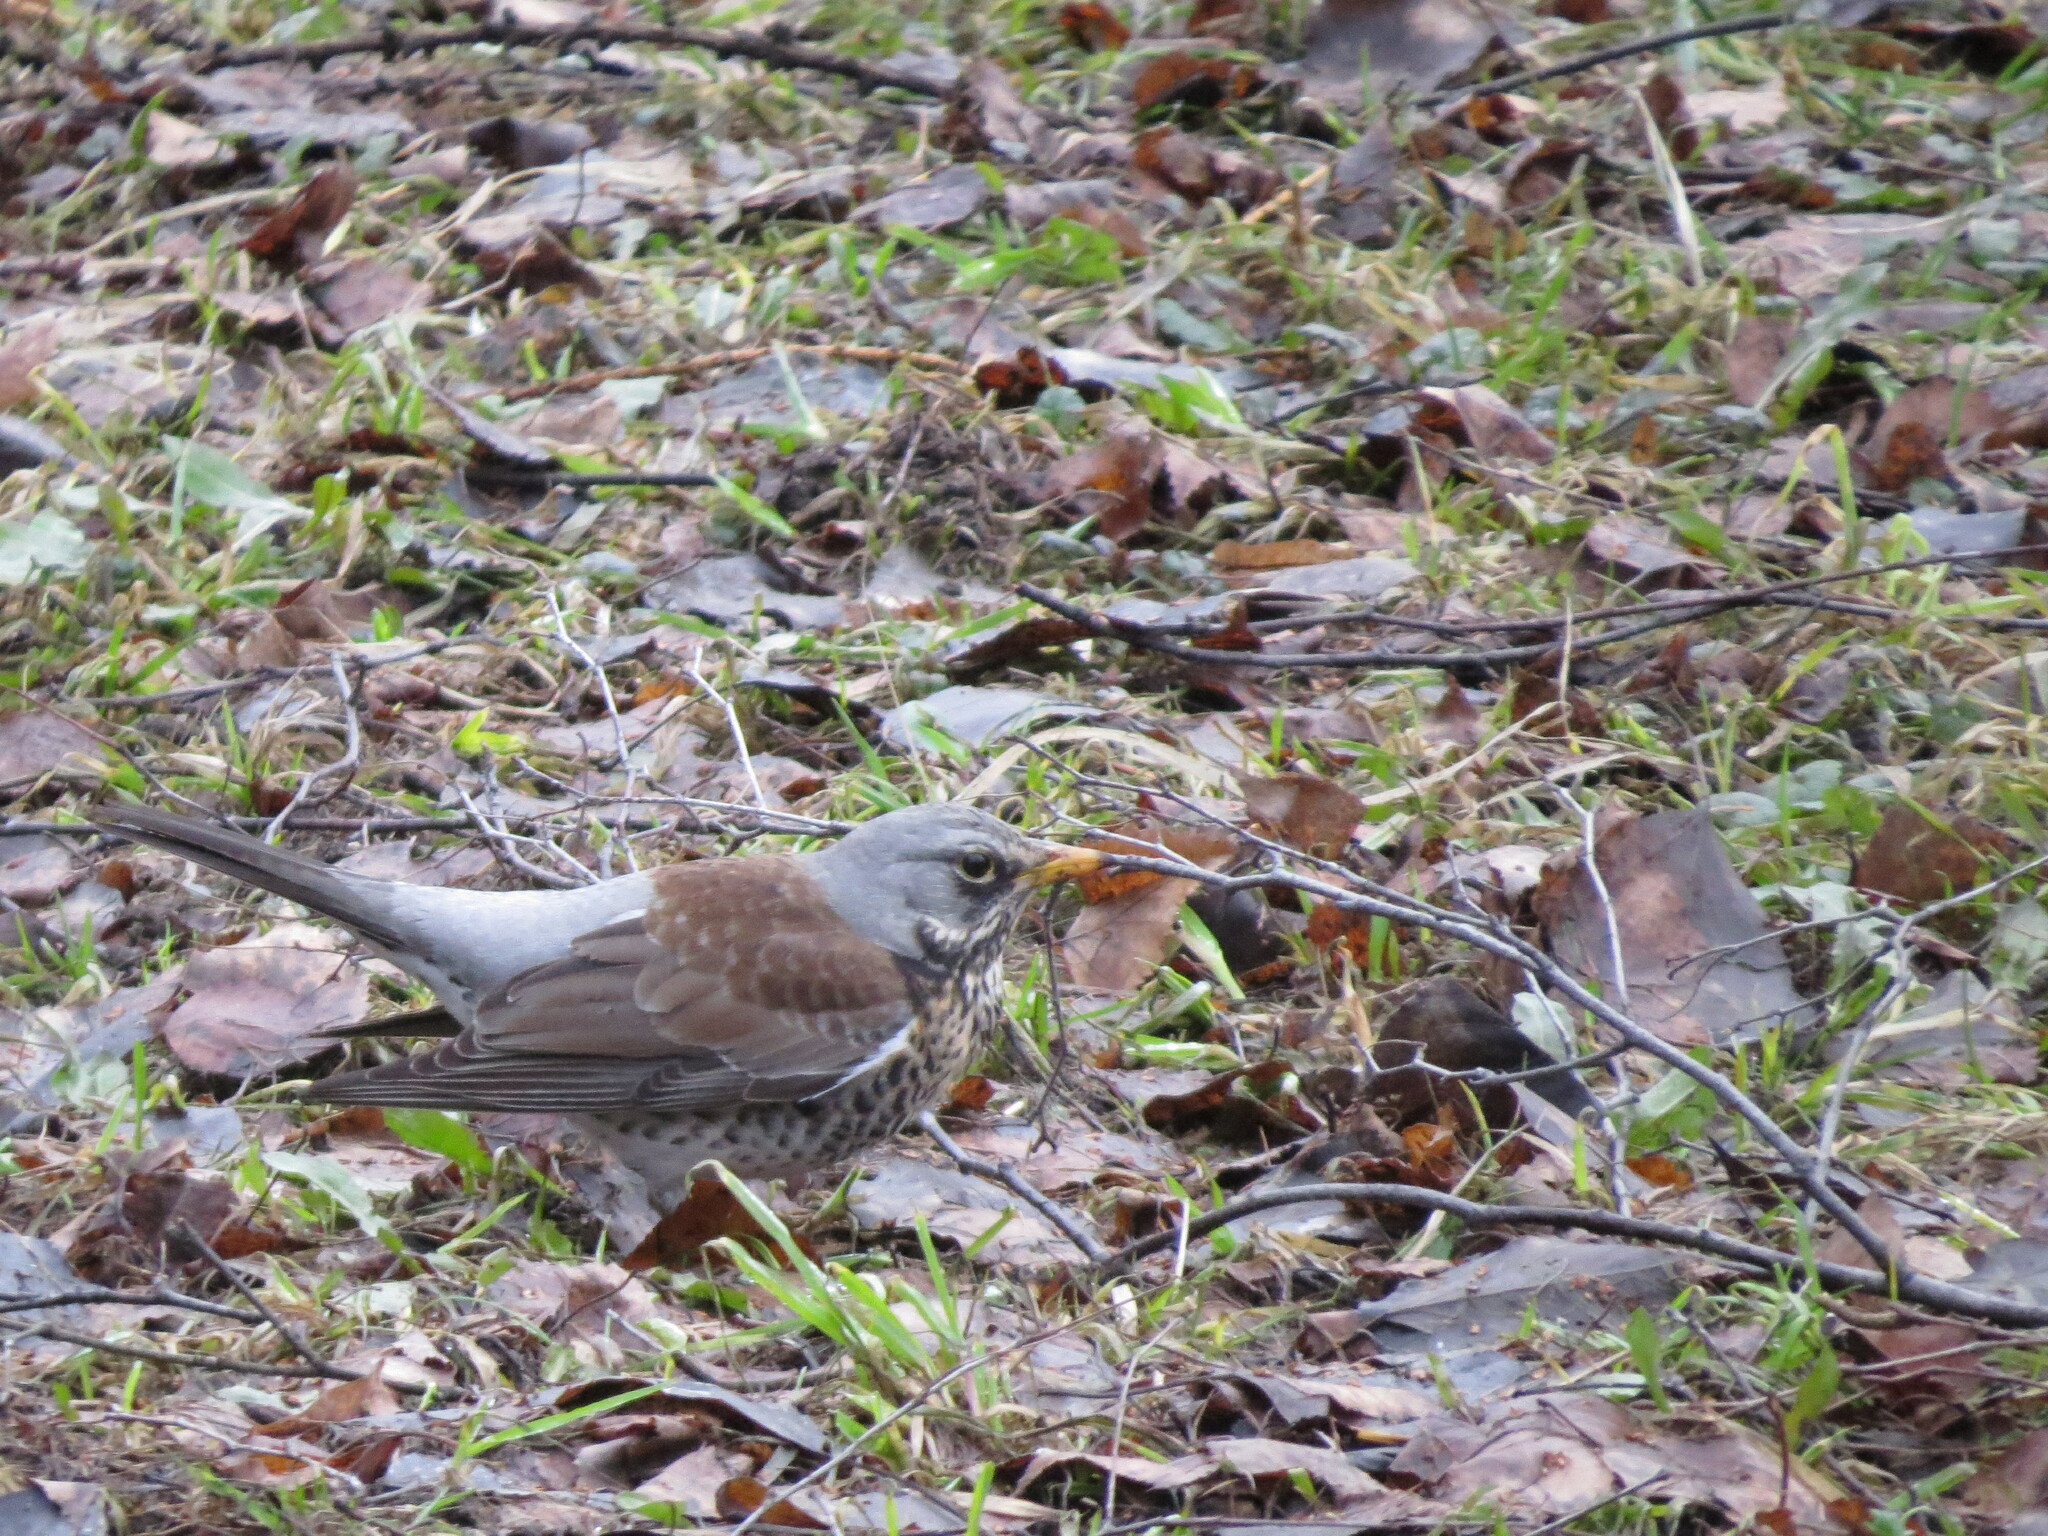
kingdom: Animalia
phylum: Chordata
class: Aves
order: Passeriformes
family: Turdidae
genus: Turdus
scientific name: Turdus pilaris
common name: Fieldfare
